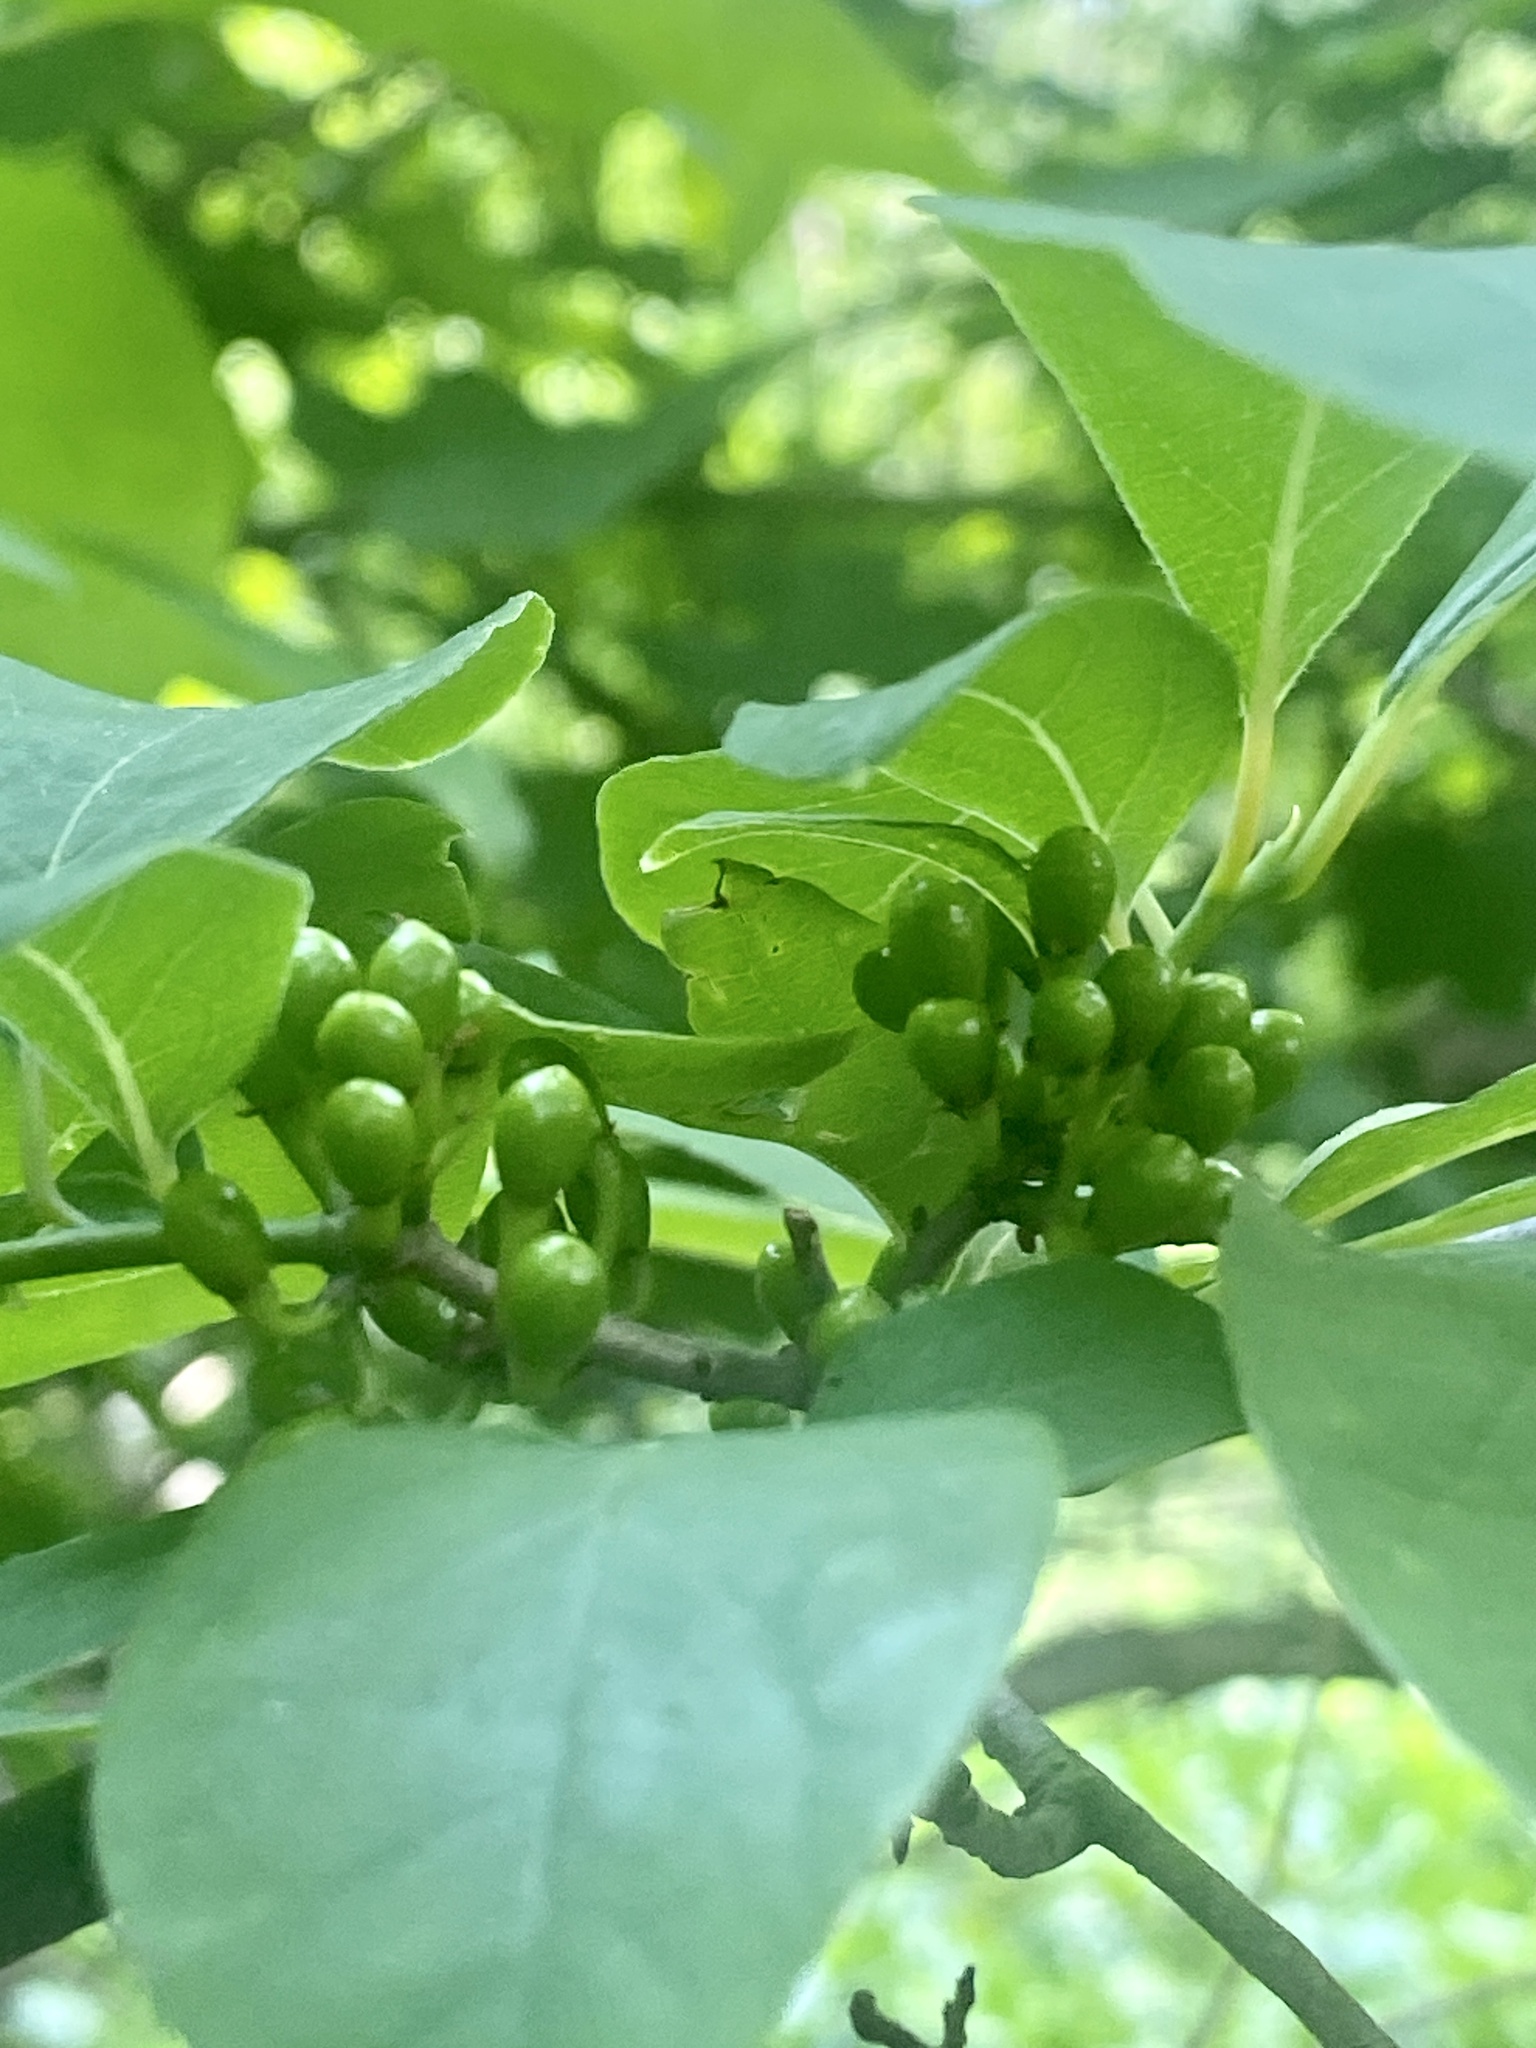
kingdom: Plantae
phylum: Tracheophyta
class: Magnoliopsida
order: Laurales
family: Lauraceae
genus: Lindera
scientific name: Lindera benzoin
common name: Spicebush
